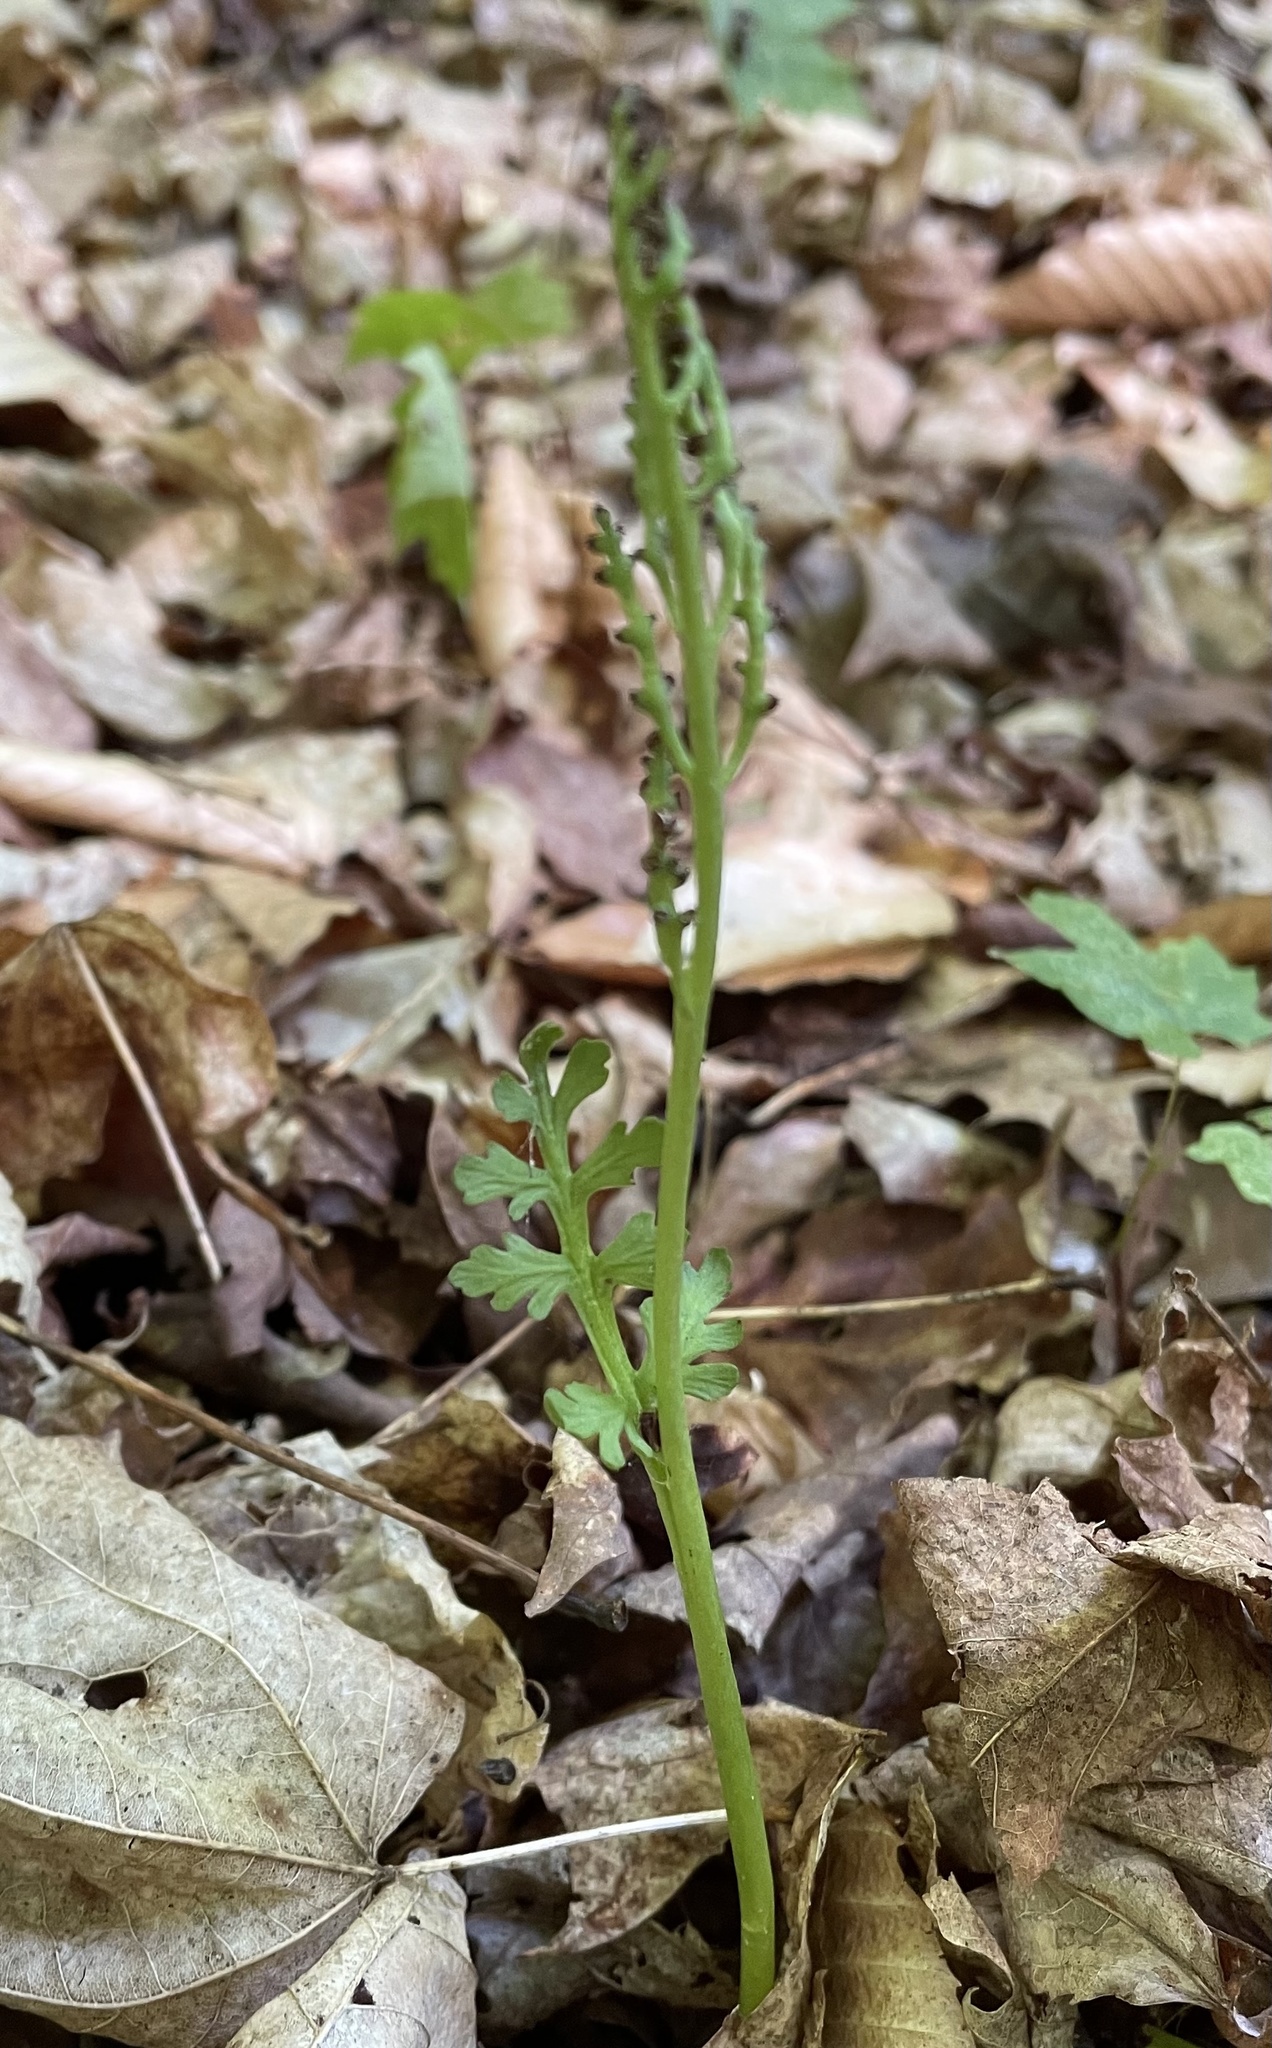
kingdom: Plantae
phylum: Tracheophyta
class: Polypodiopsida
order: Ophioglossales
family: Ophioglossaceae
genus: Botrychium
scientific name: Botrychium matricariifolium
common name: Branched moonwort
